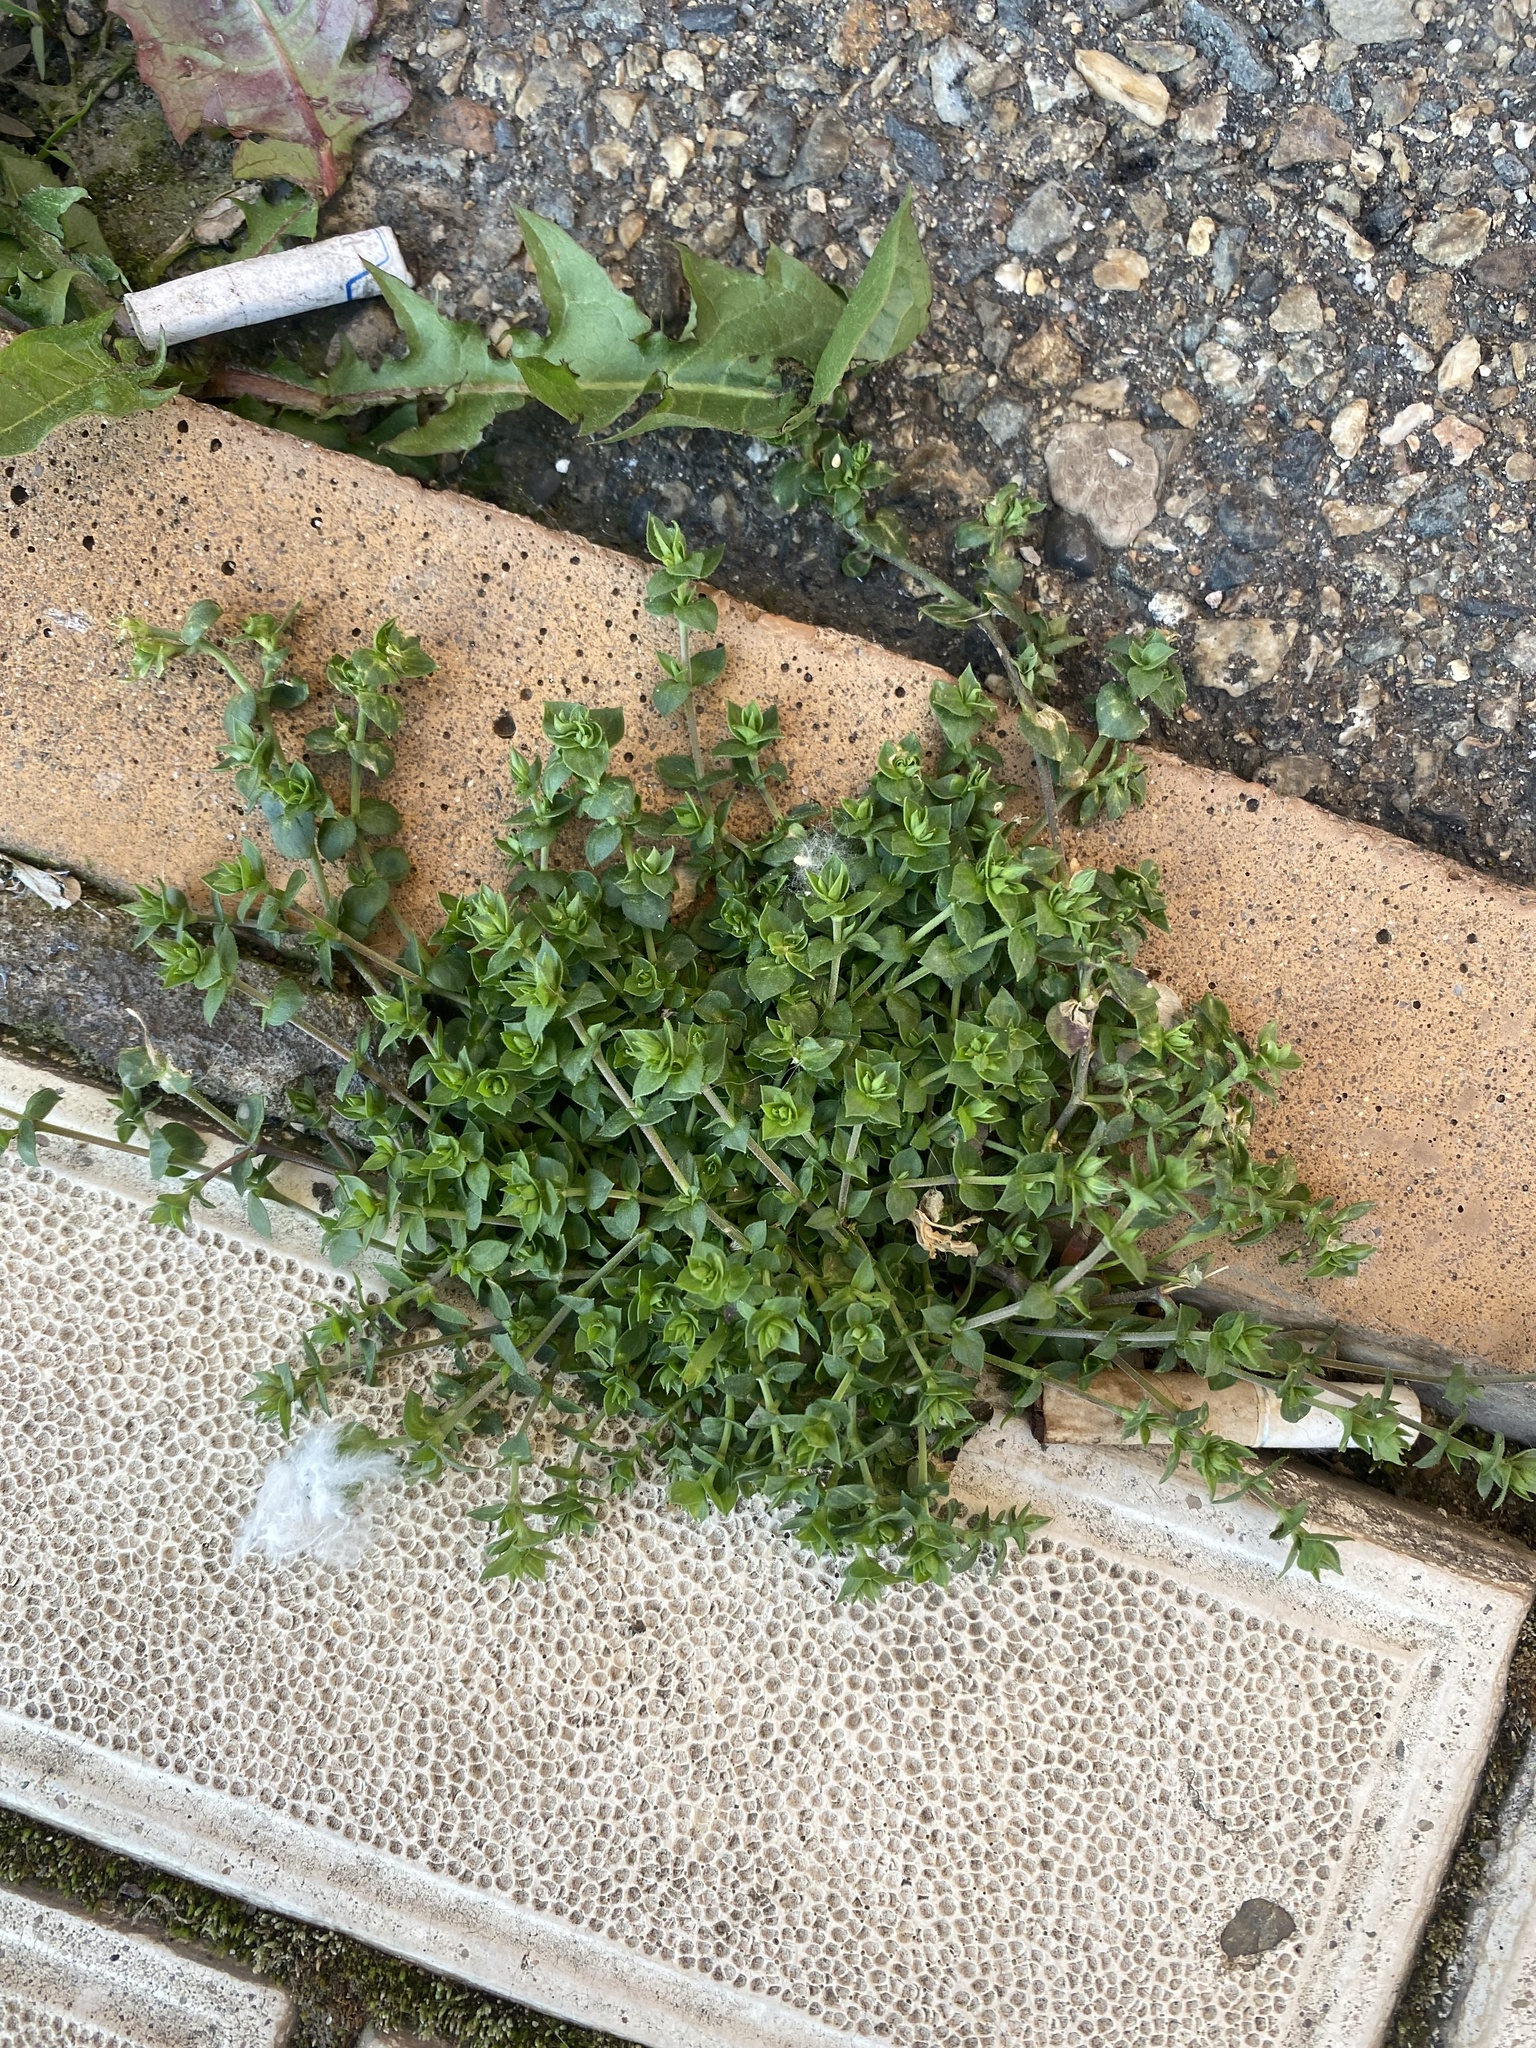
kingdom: Plantae
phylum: Tracheophyta
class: Magnoliopsida
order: Caryophyllales
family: Caryophyllaceae
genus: Arenaria
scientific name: Arenaria serpyllifolia
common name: Thyme-leaved sandwort
